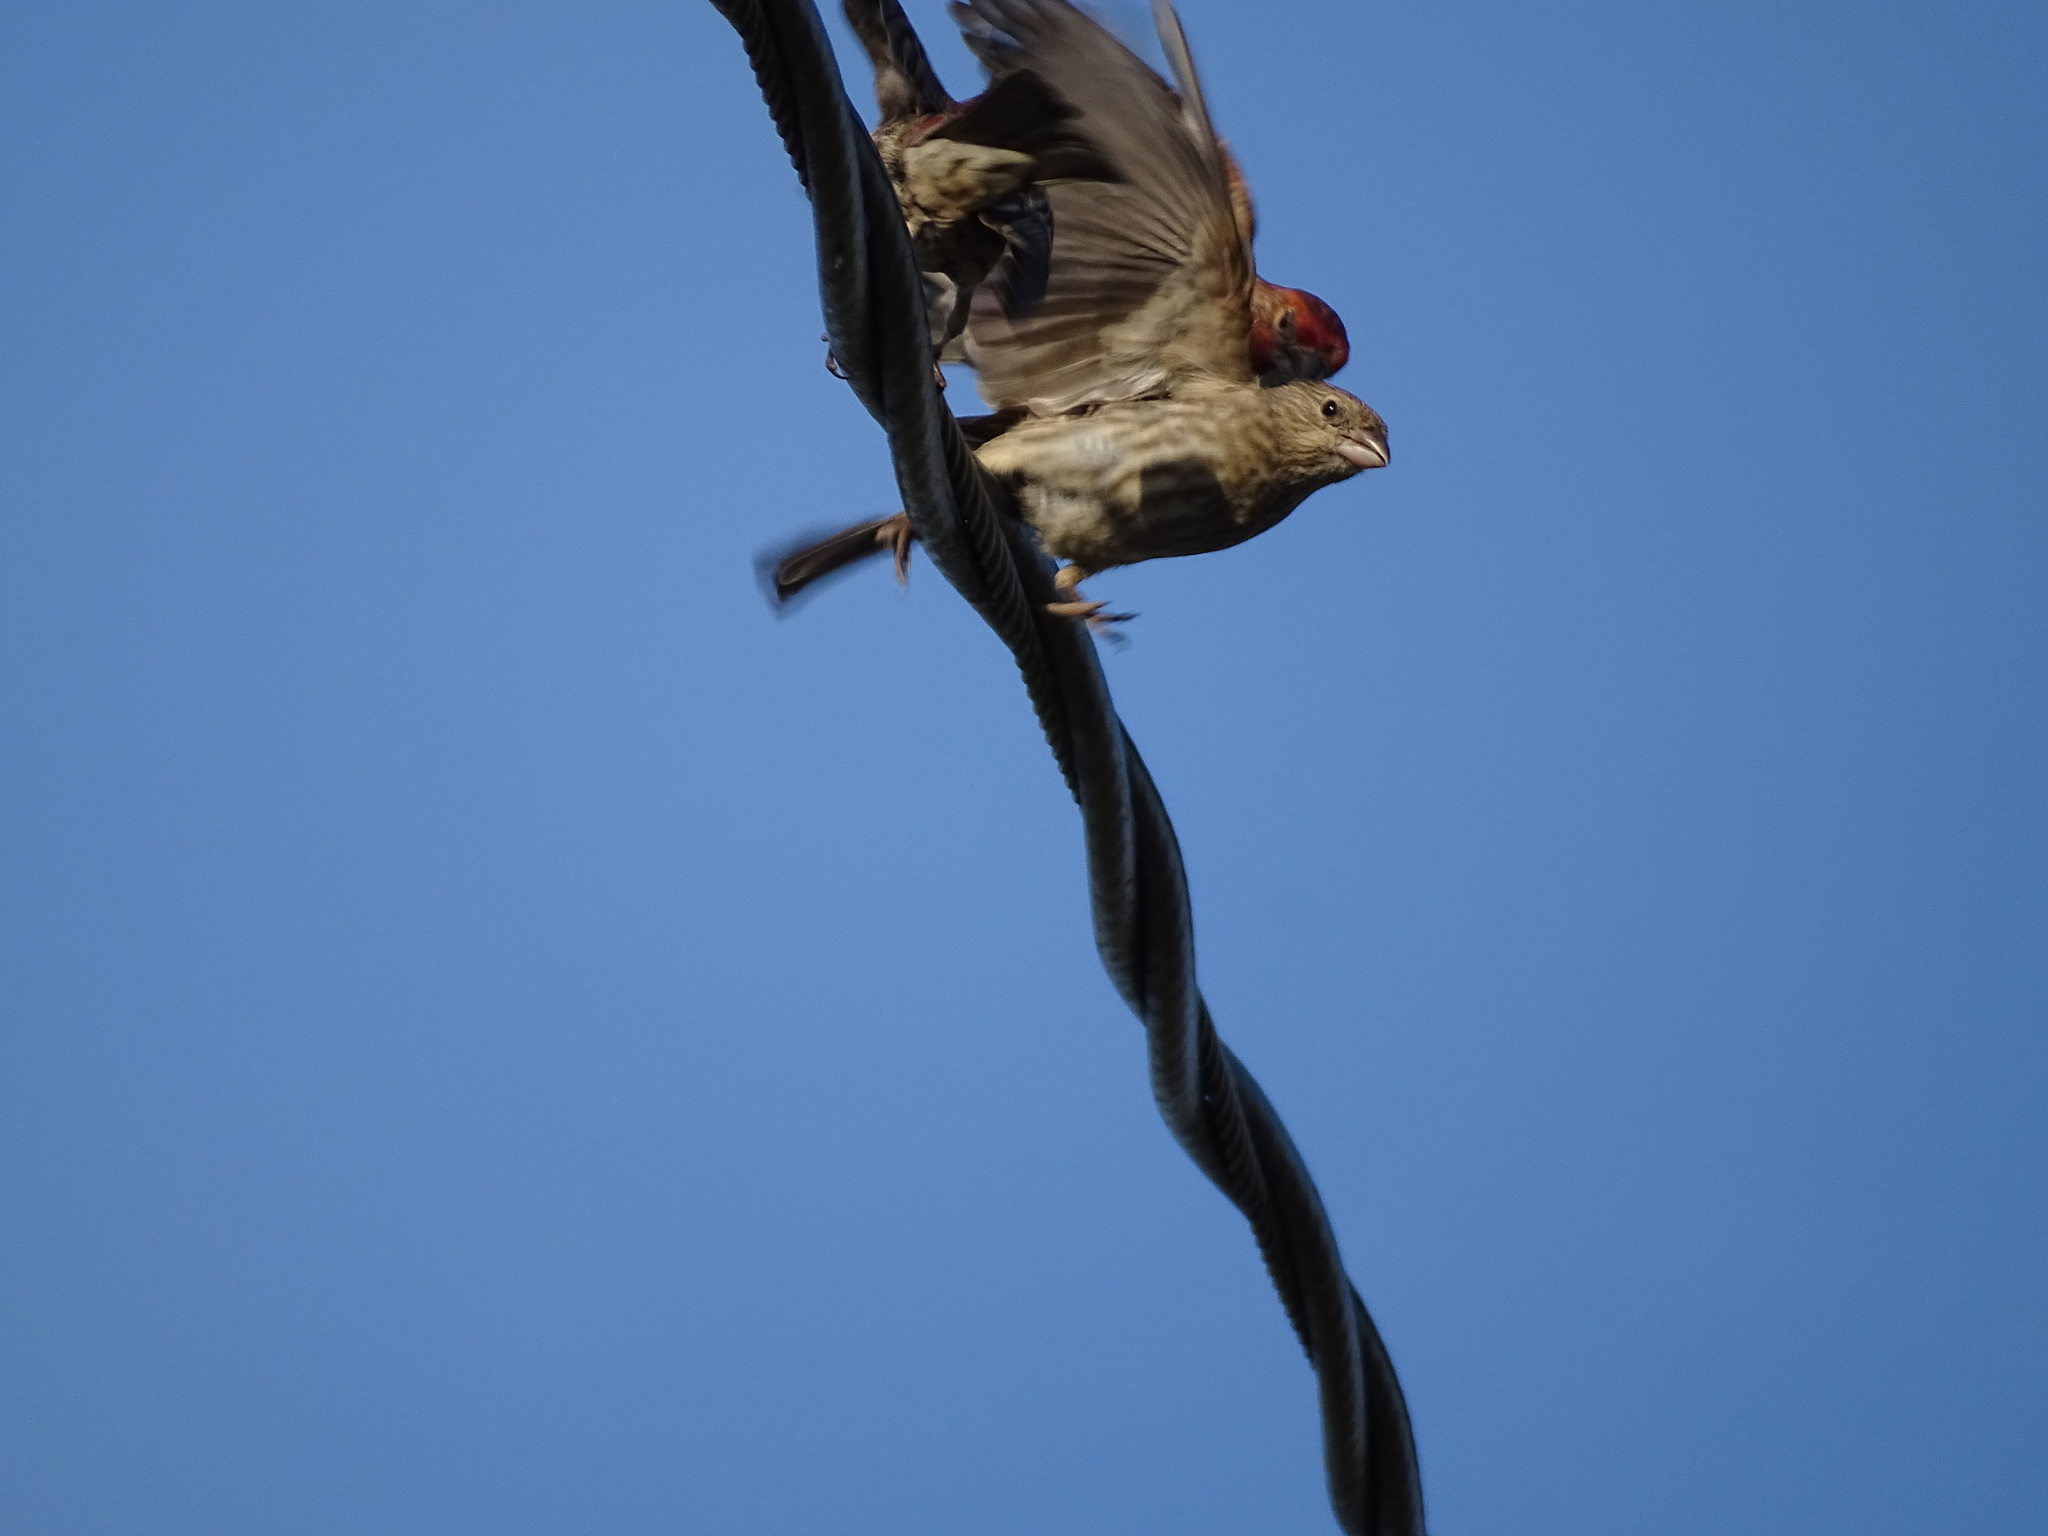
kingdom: Animalia
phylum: Chordata
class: Aves
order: Passeriformes
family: Fringillidae
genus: Haemorhous
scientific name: Haemorhous mexicanus
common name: House finch
